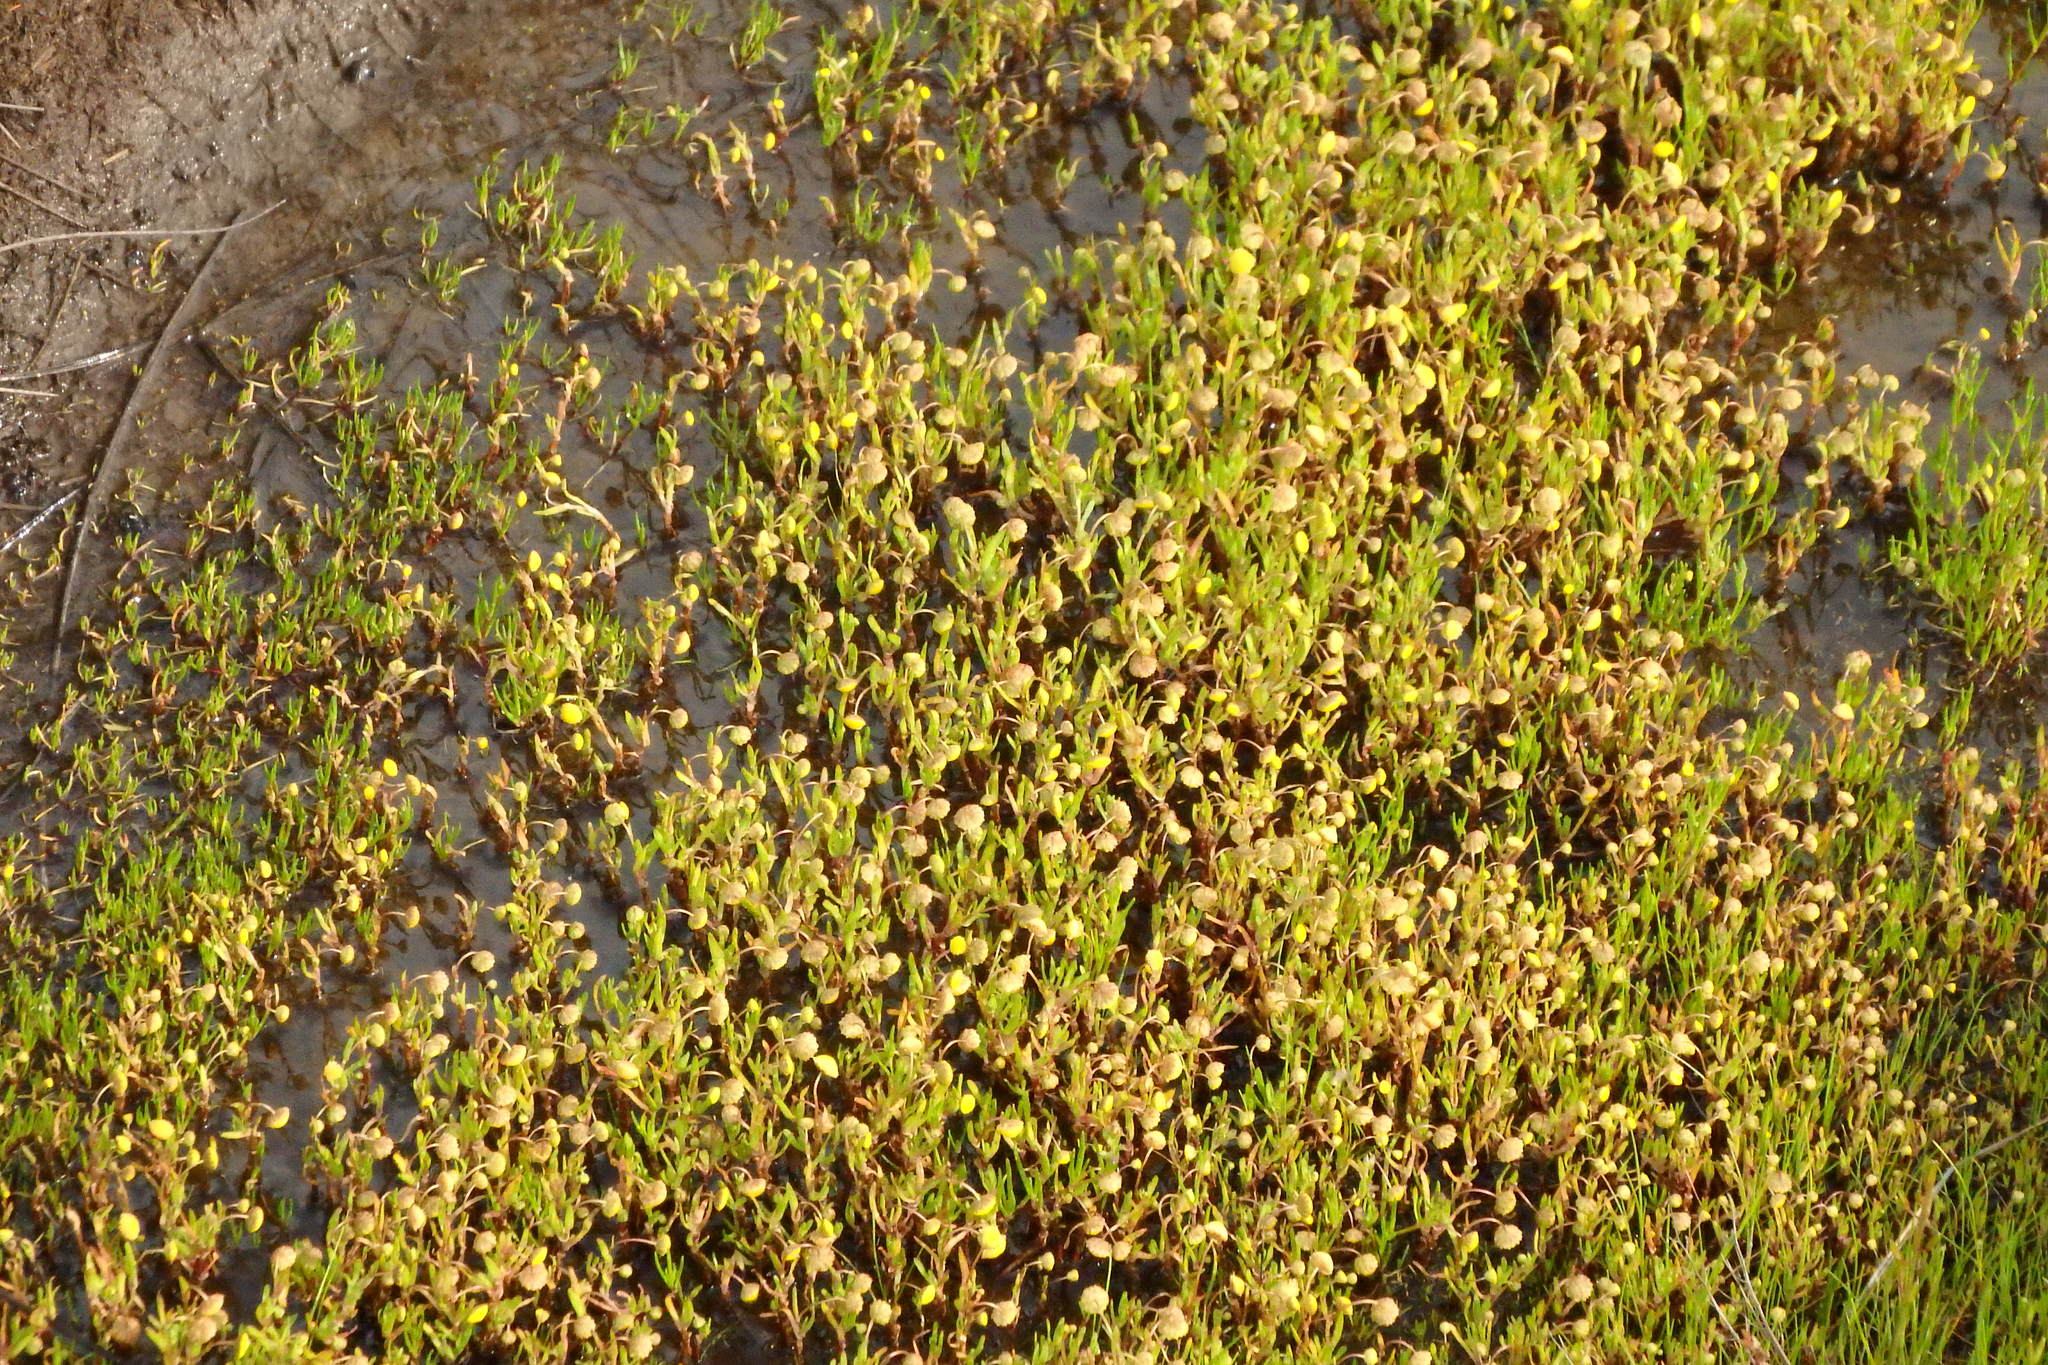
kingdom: Plantae
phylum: Tracheophyta
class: Magnoliopsida
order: Asterales
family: Asteraceae
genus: Cotula
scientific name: Cotula coronopifolia
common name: Buttonweed
